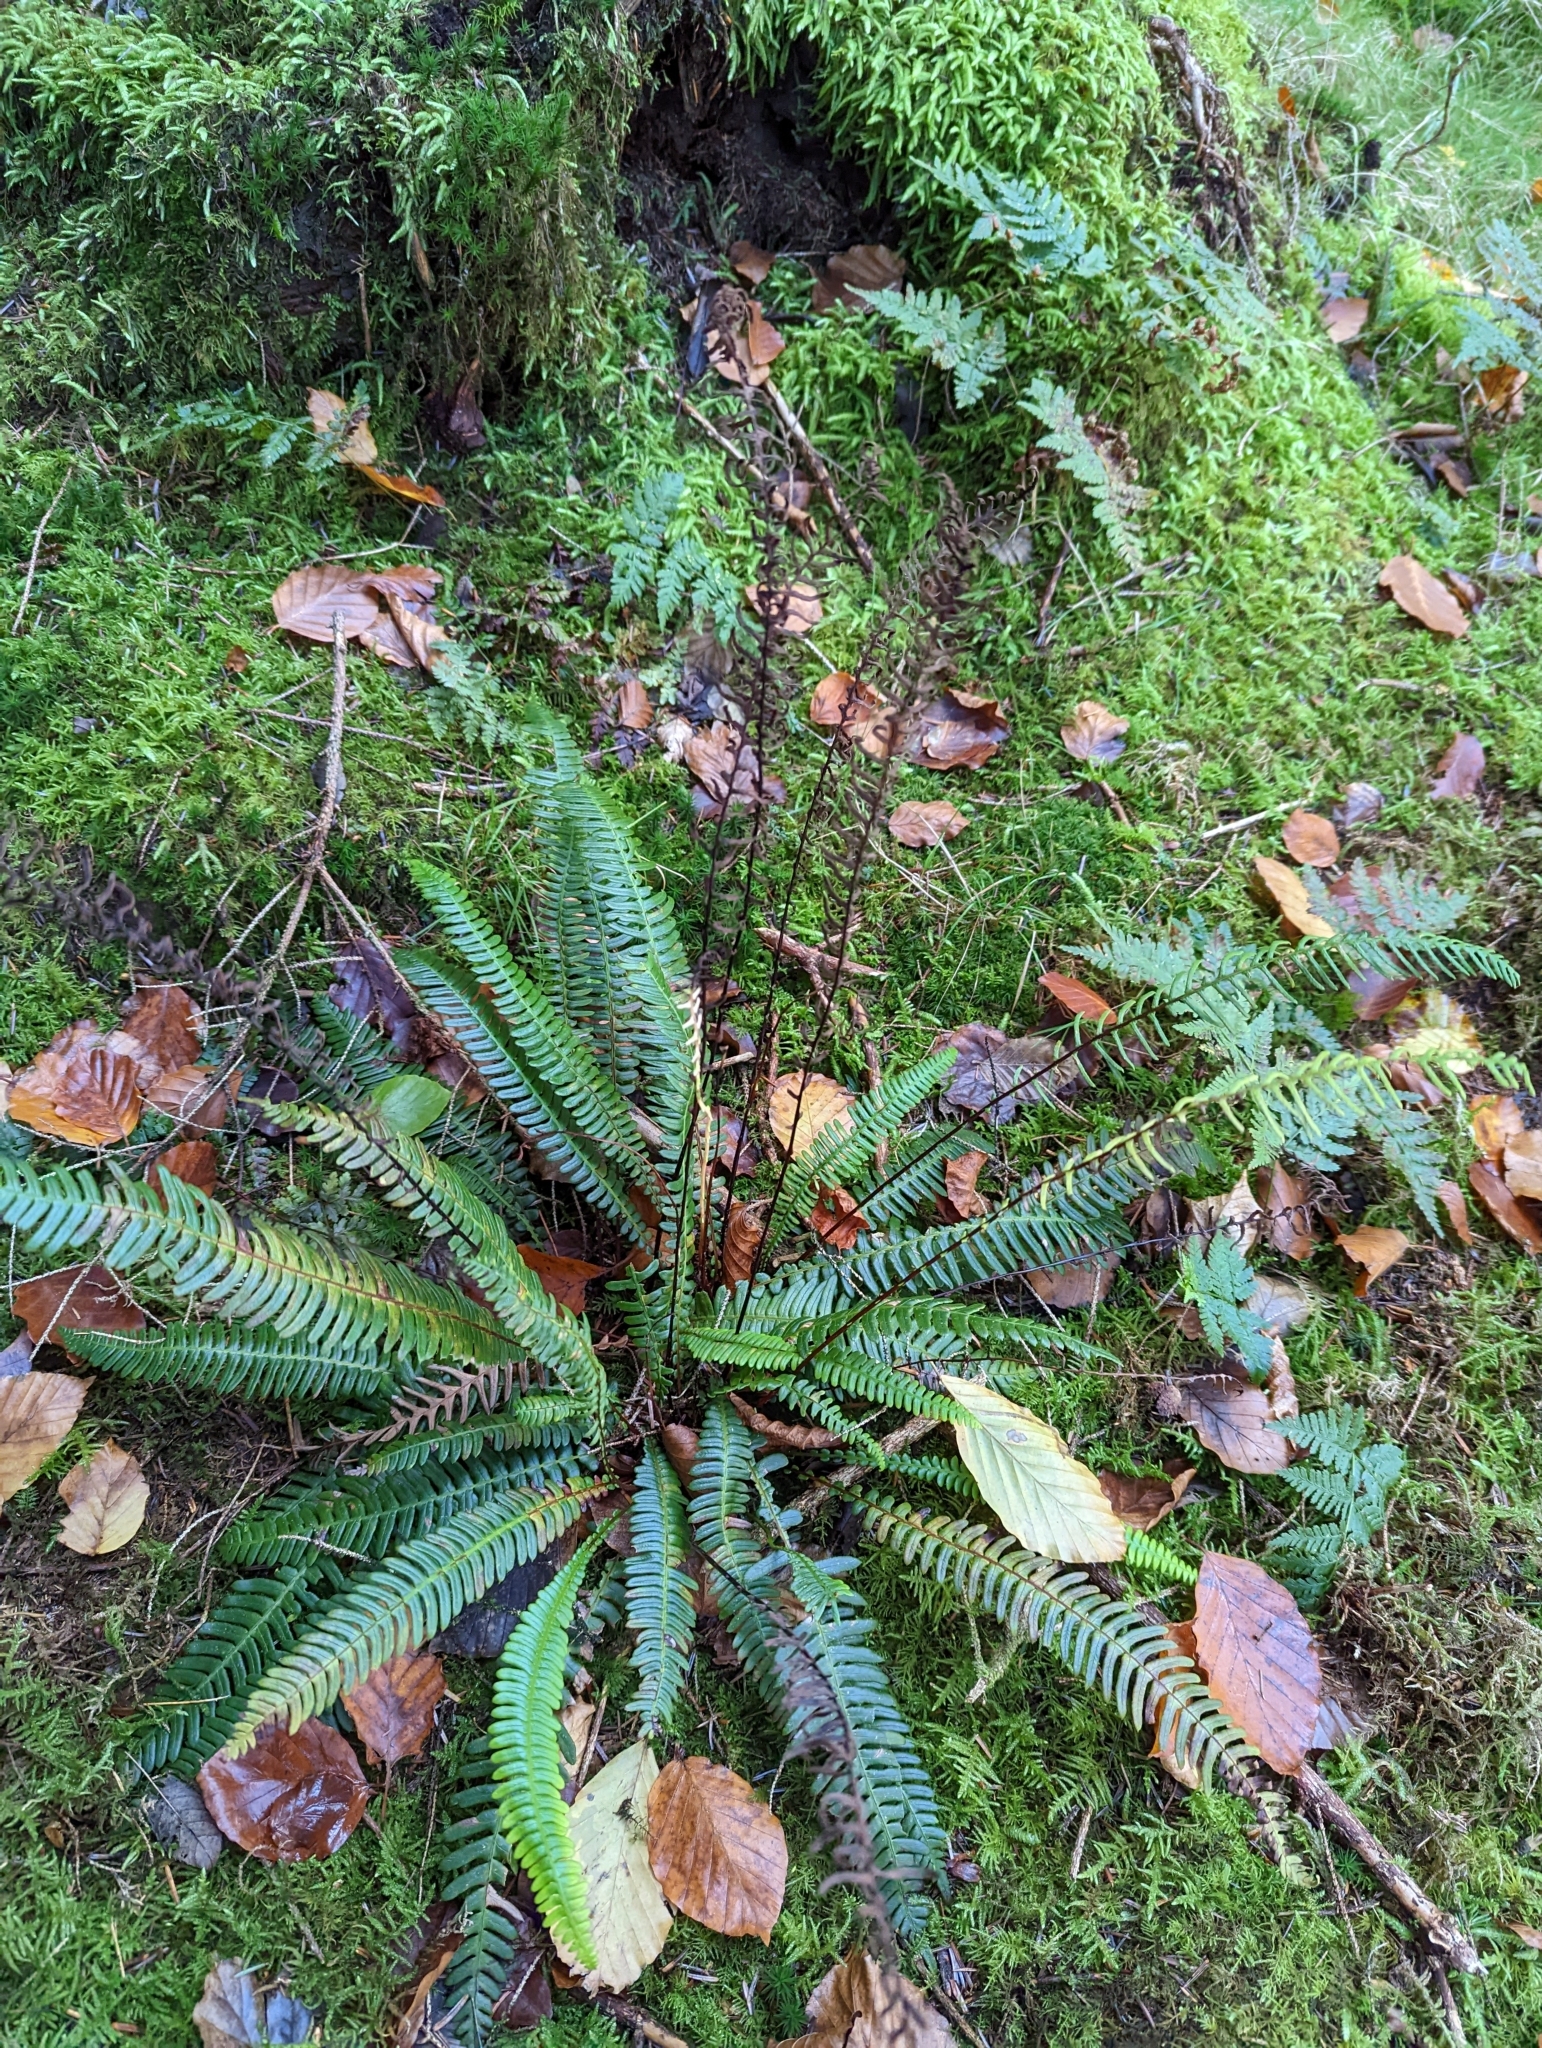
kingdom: Plantae
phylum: Tracheophyta
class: Polypodiopsida
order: Polypodiales
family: Blechnaceae
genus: Struthiopteris
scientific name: Struthiopteris spicant
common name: Deer fern
